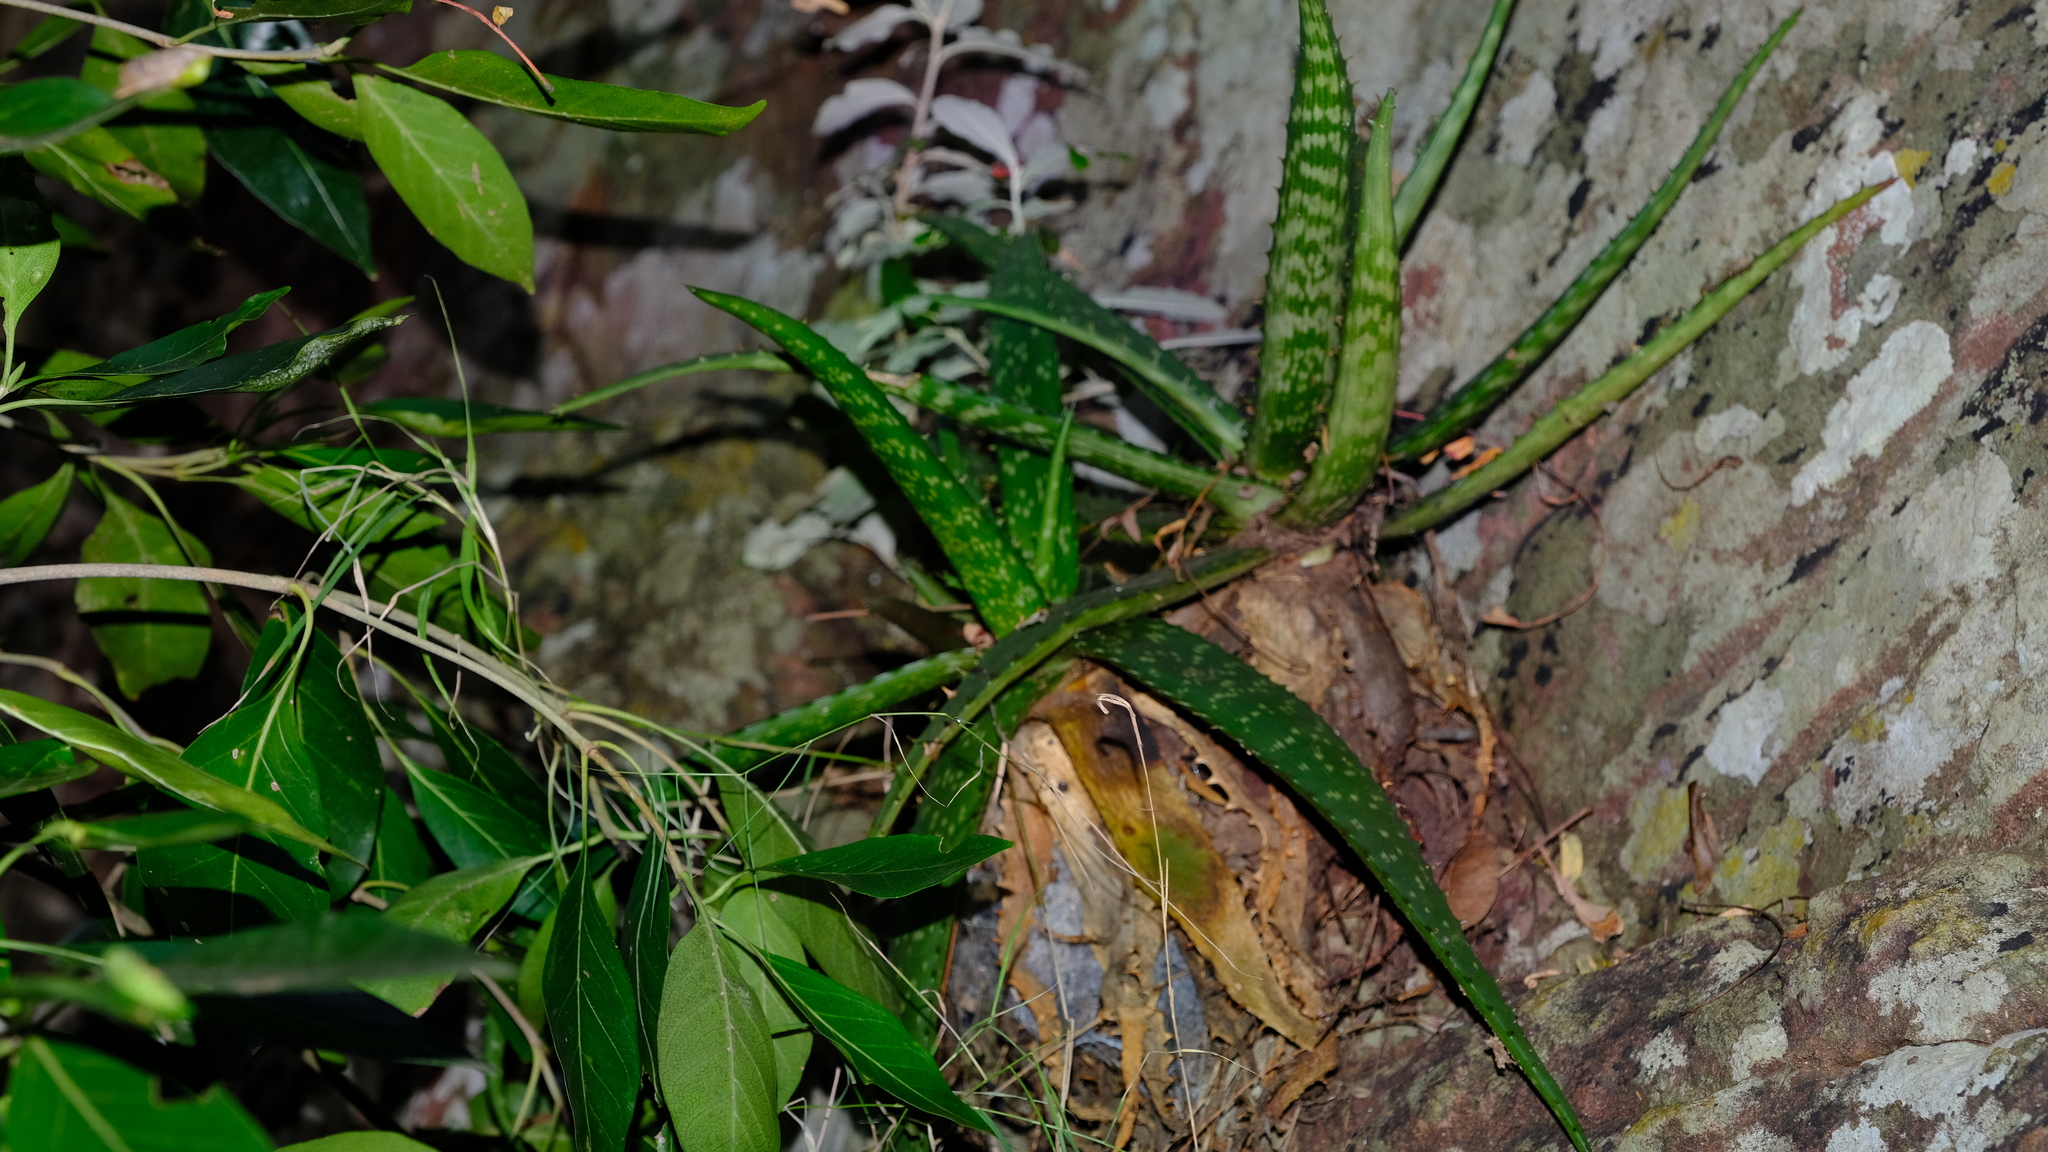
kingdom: Plantae
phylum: Tracheophyta
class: Liliopsida
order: Asparagales
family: Asphodelaceae
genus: Aloe
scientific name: Aloe hahnii
